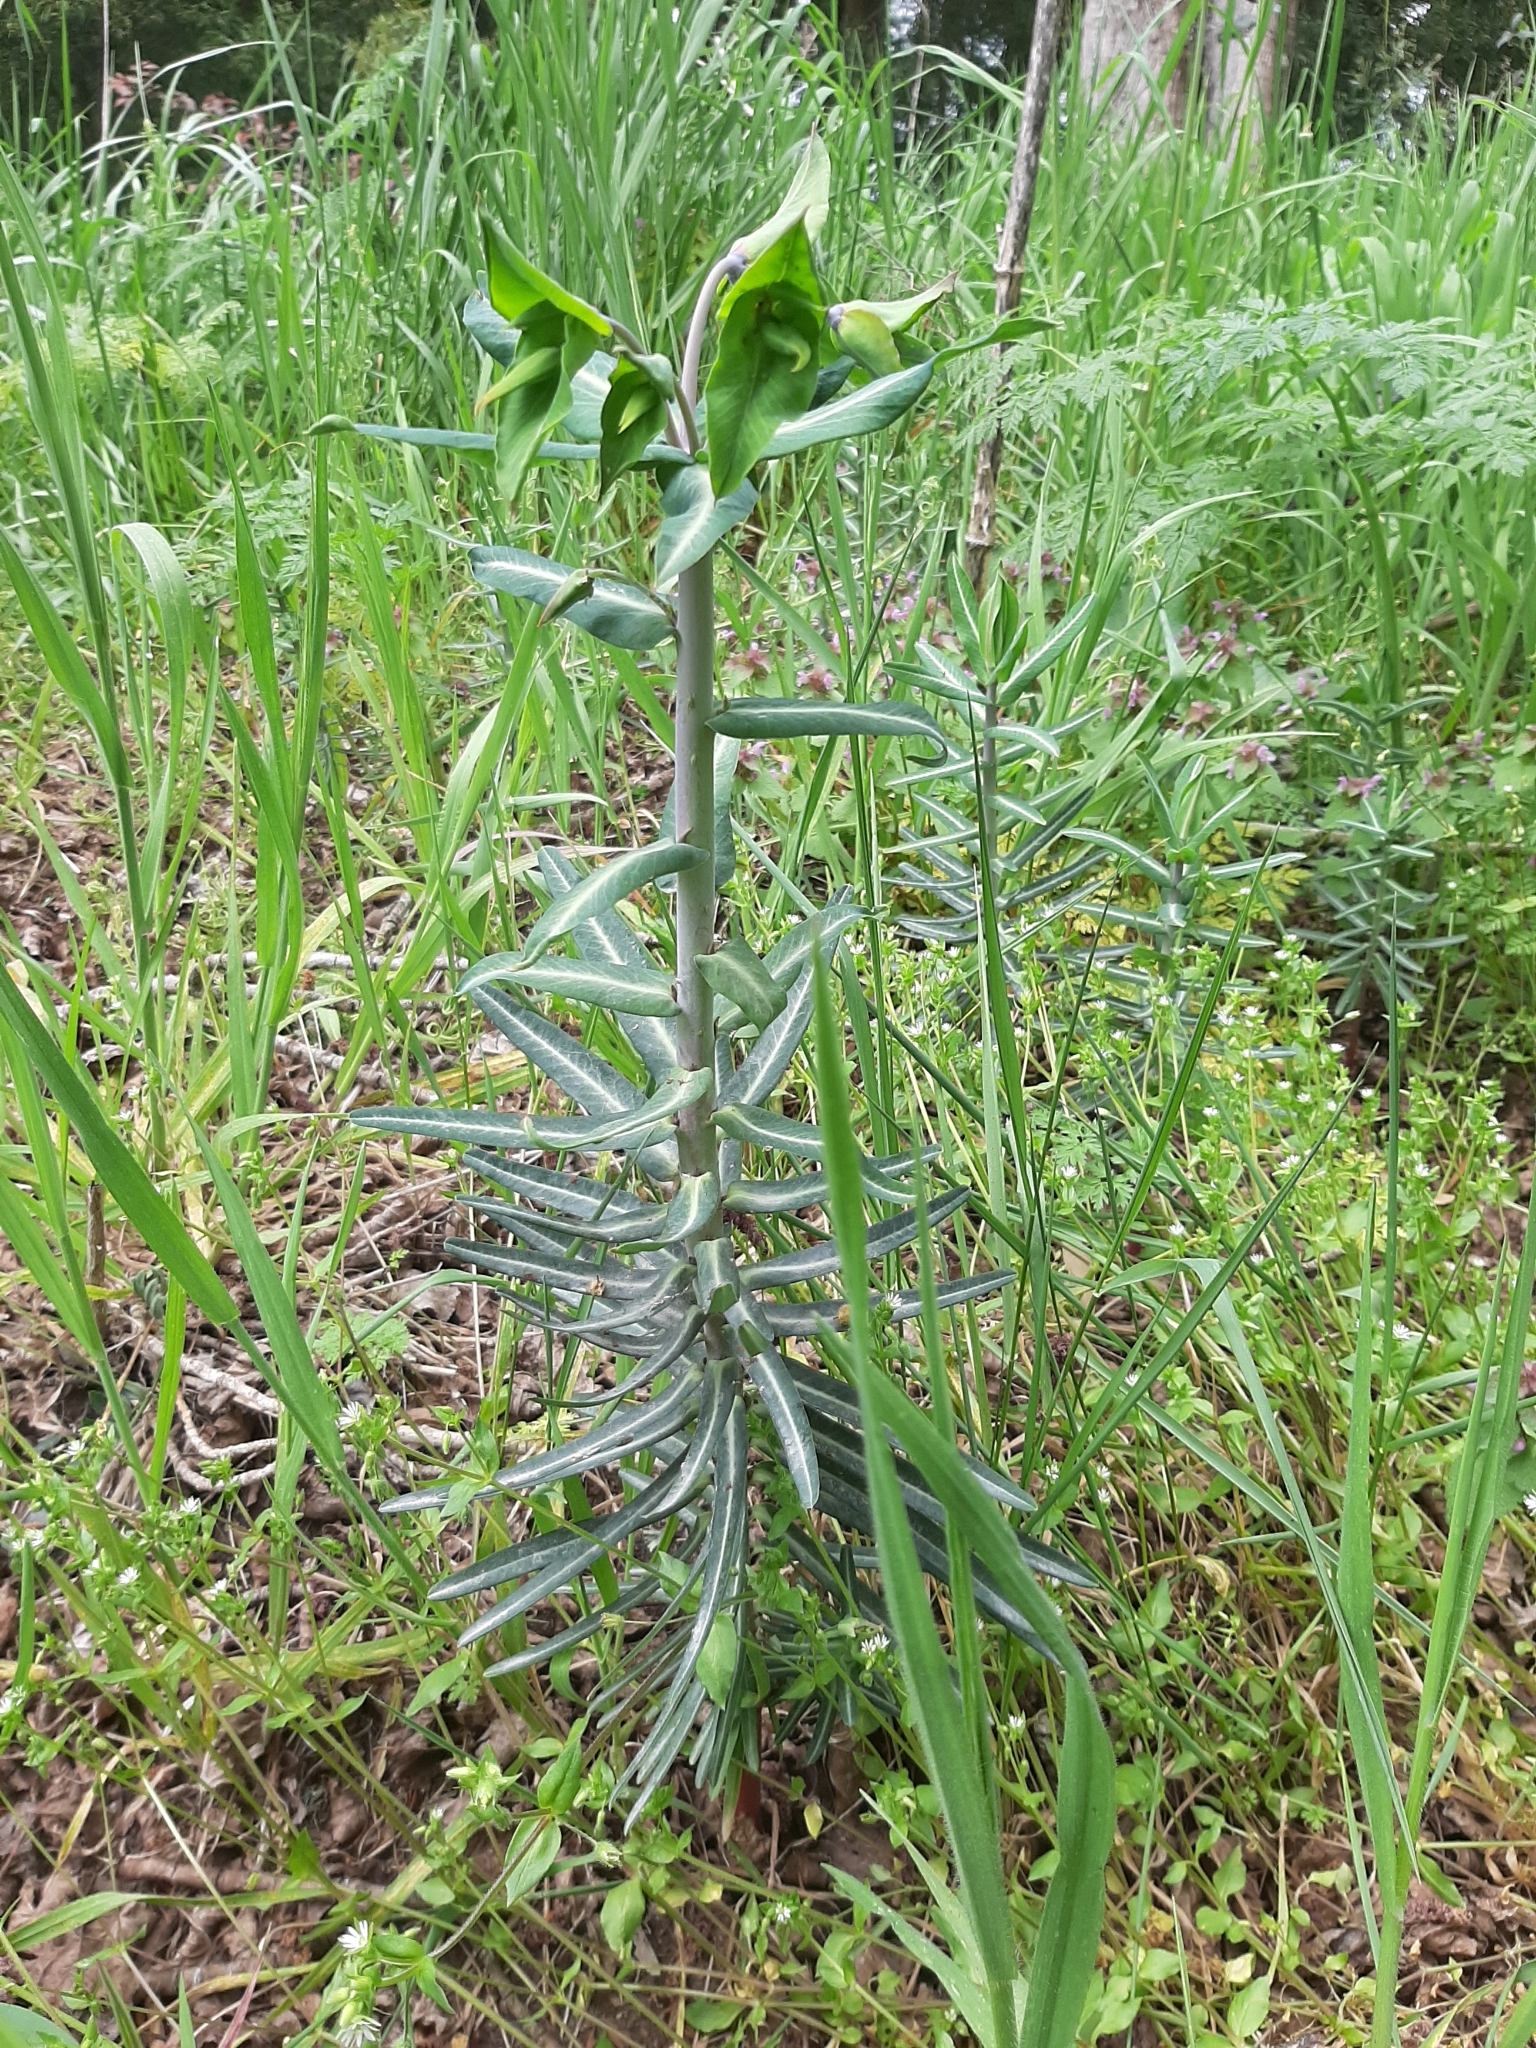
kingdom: Plantae
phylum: Tracheophyta
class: Magnoliopsida
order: Malpighiales
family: Euphorbiaceae
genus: Euphorbia
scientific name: Euphorbia lathyris
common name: Caper spurge
